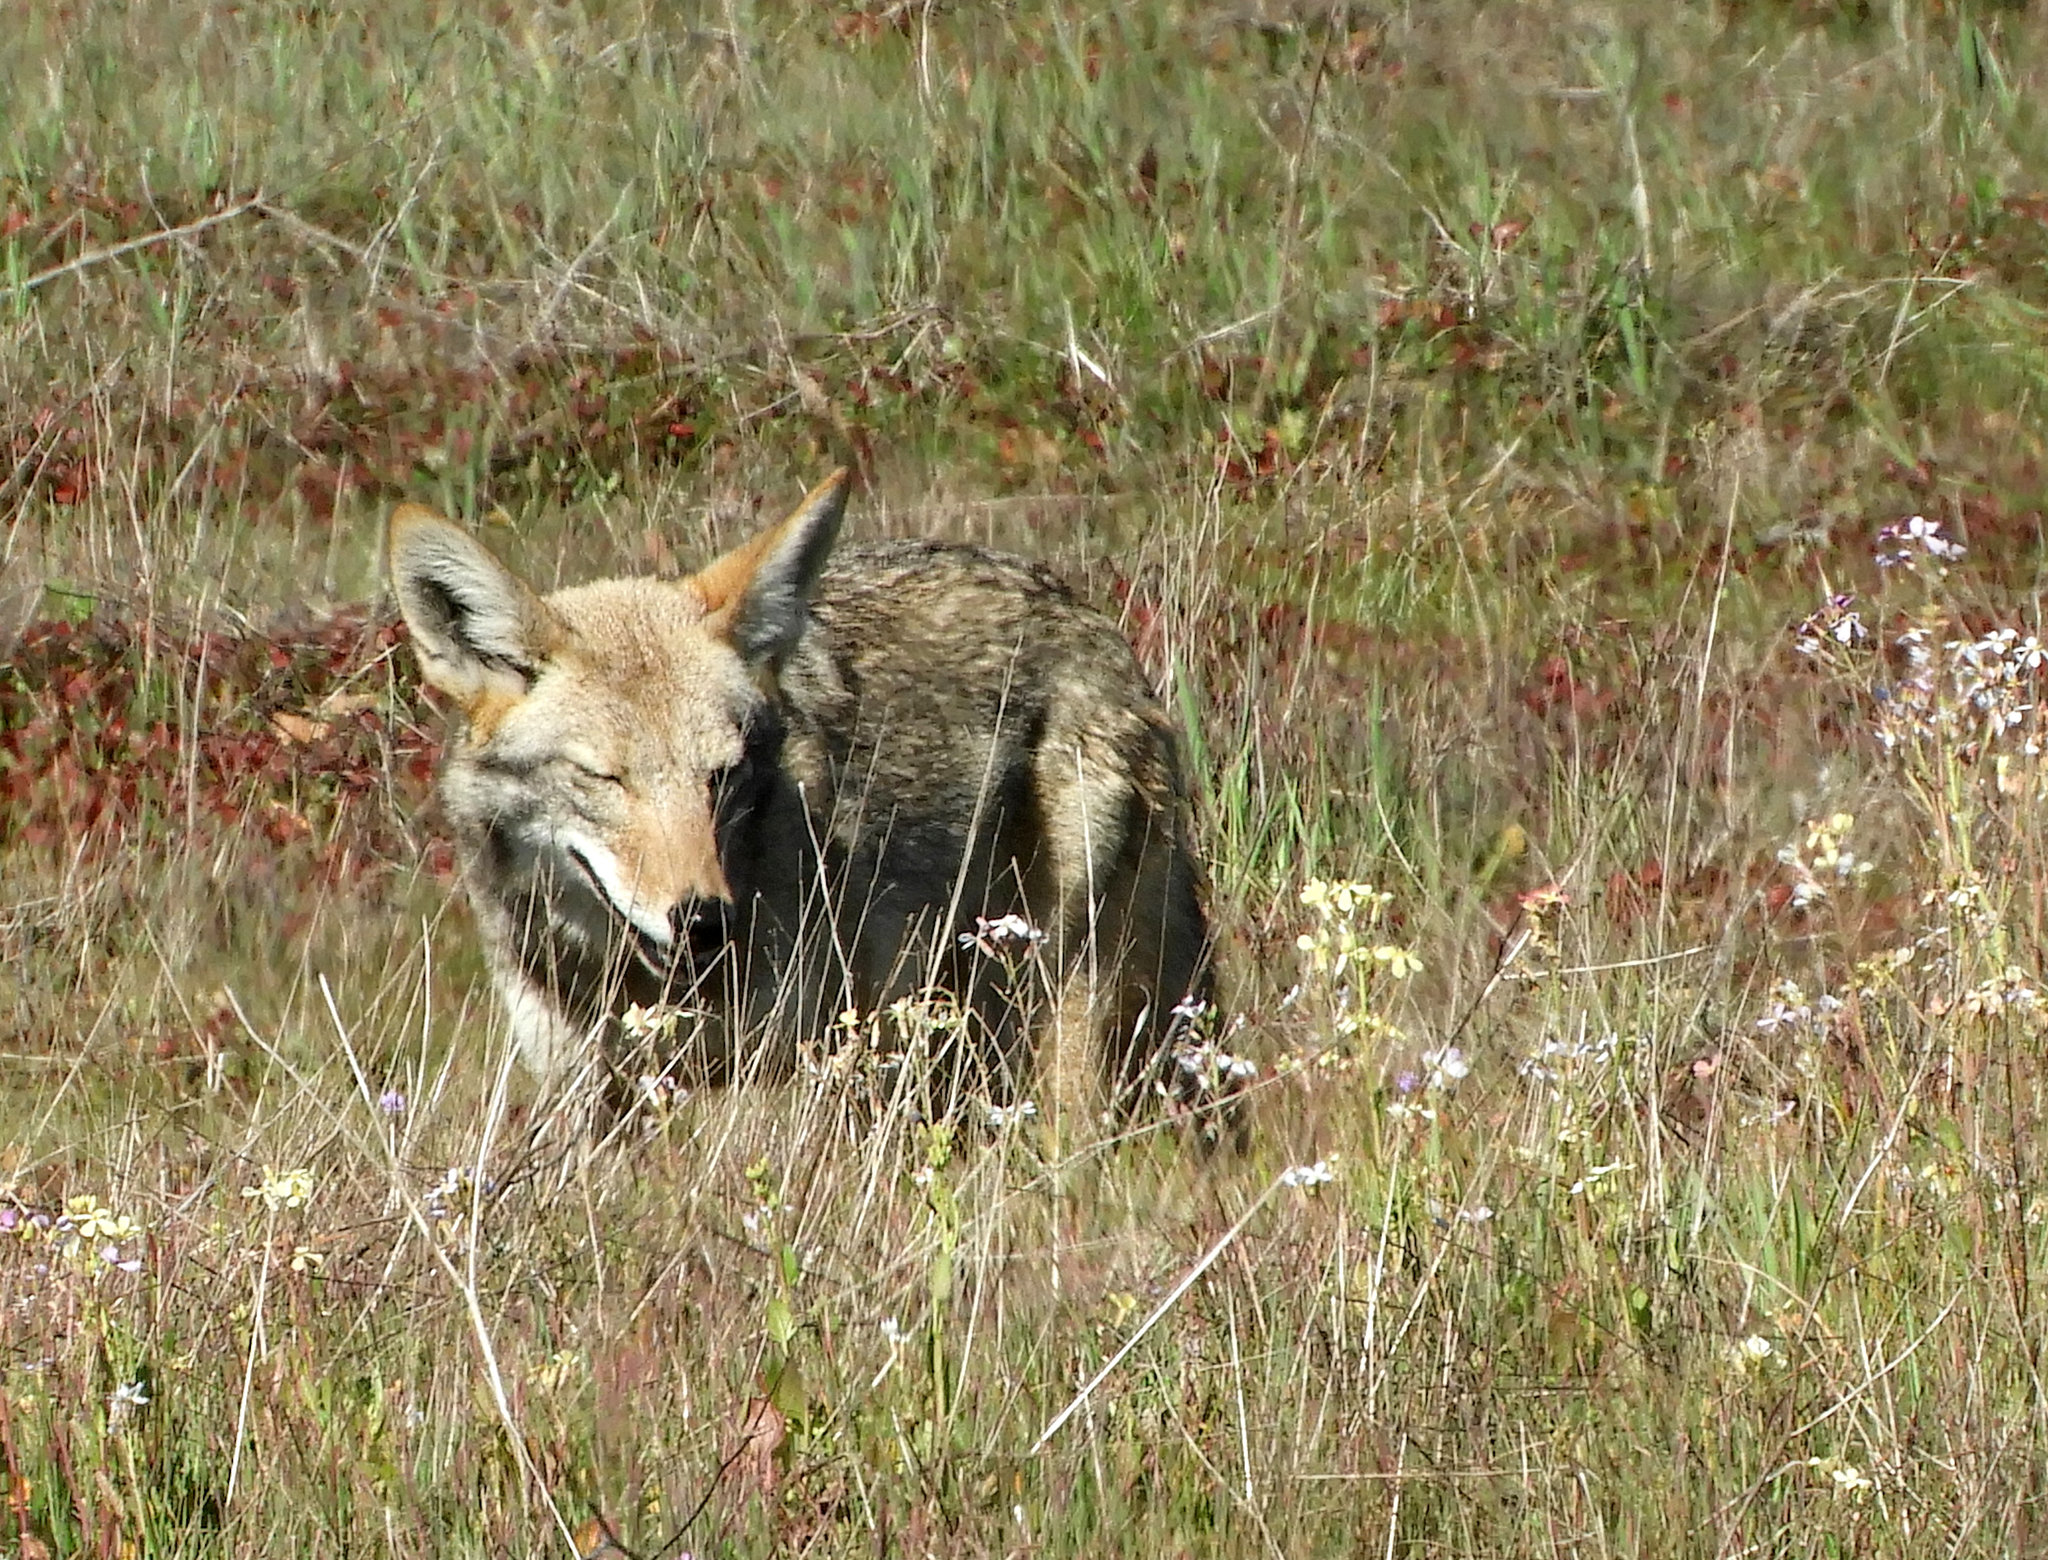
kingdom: Animalia
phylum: Chordata
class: Mammalia
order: Carnivora
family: Canidae
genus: Canis
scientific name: Canis latrans
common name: Coyote
